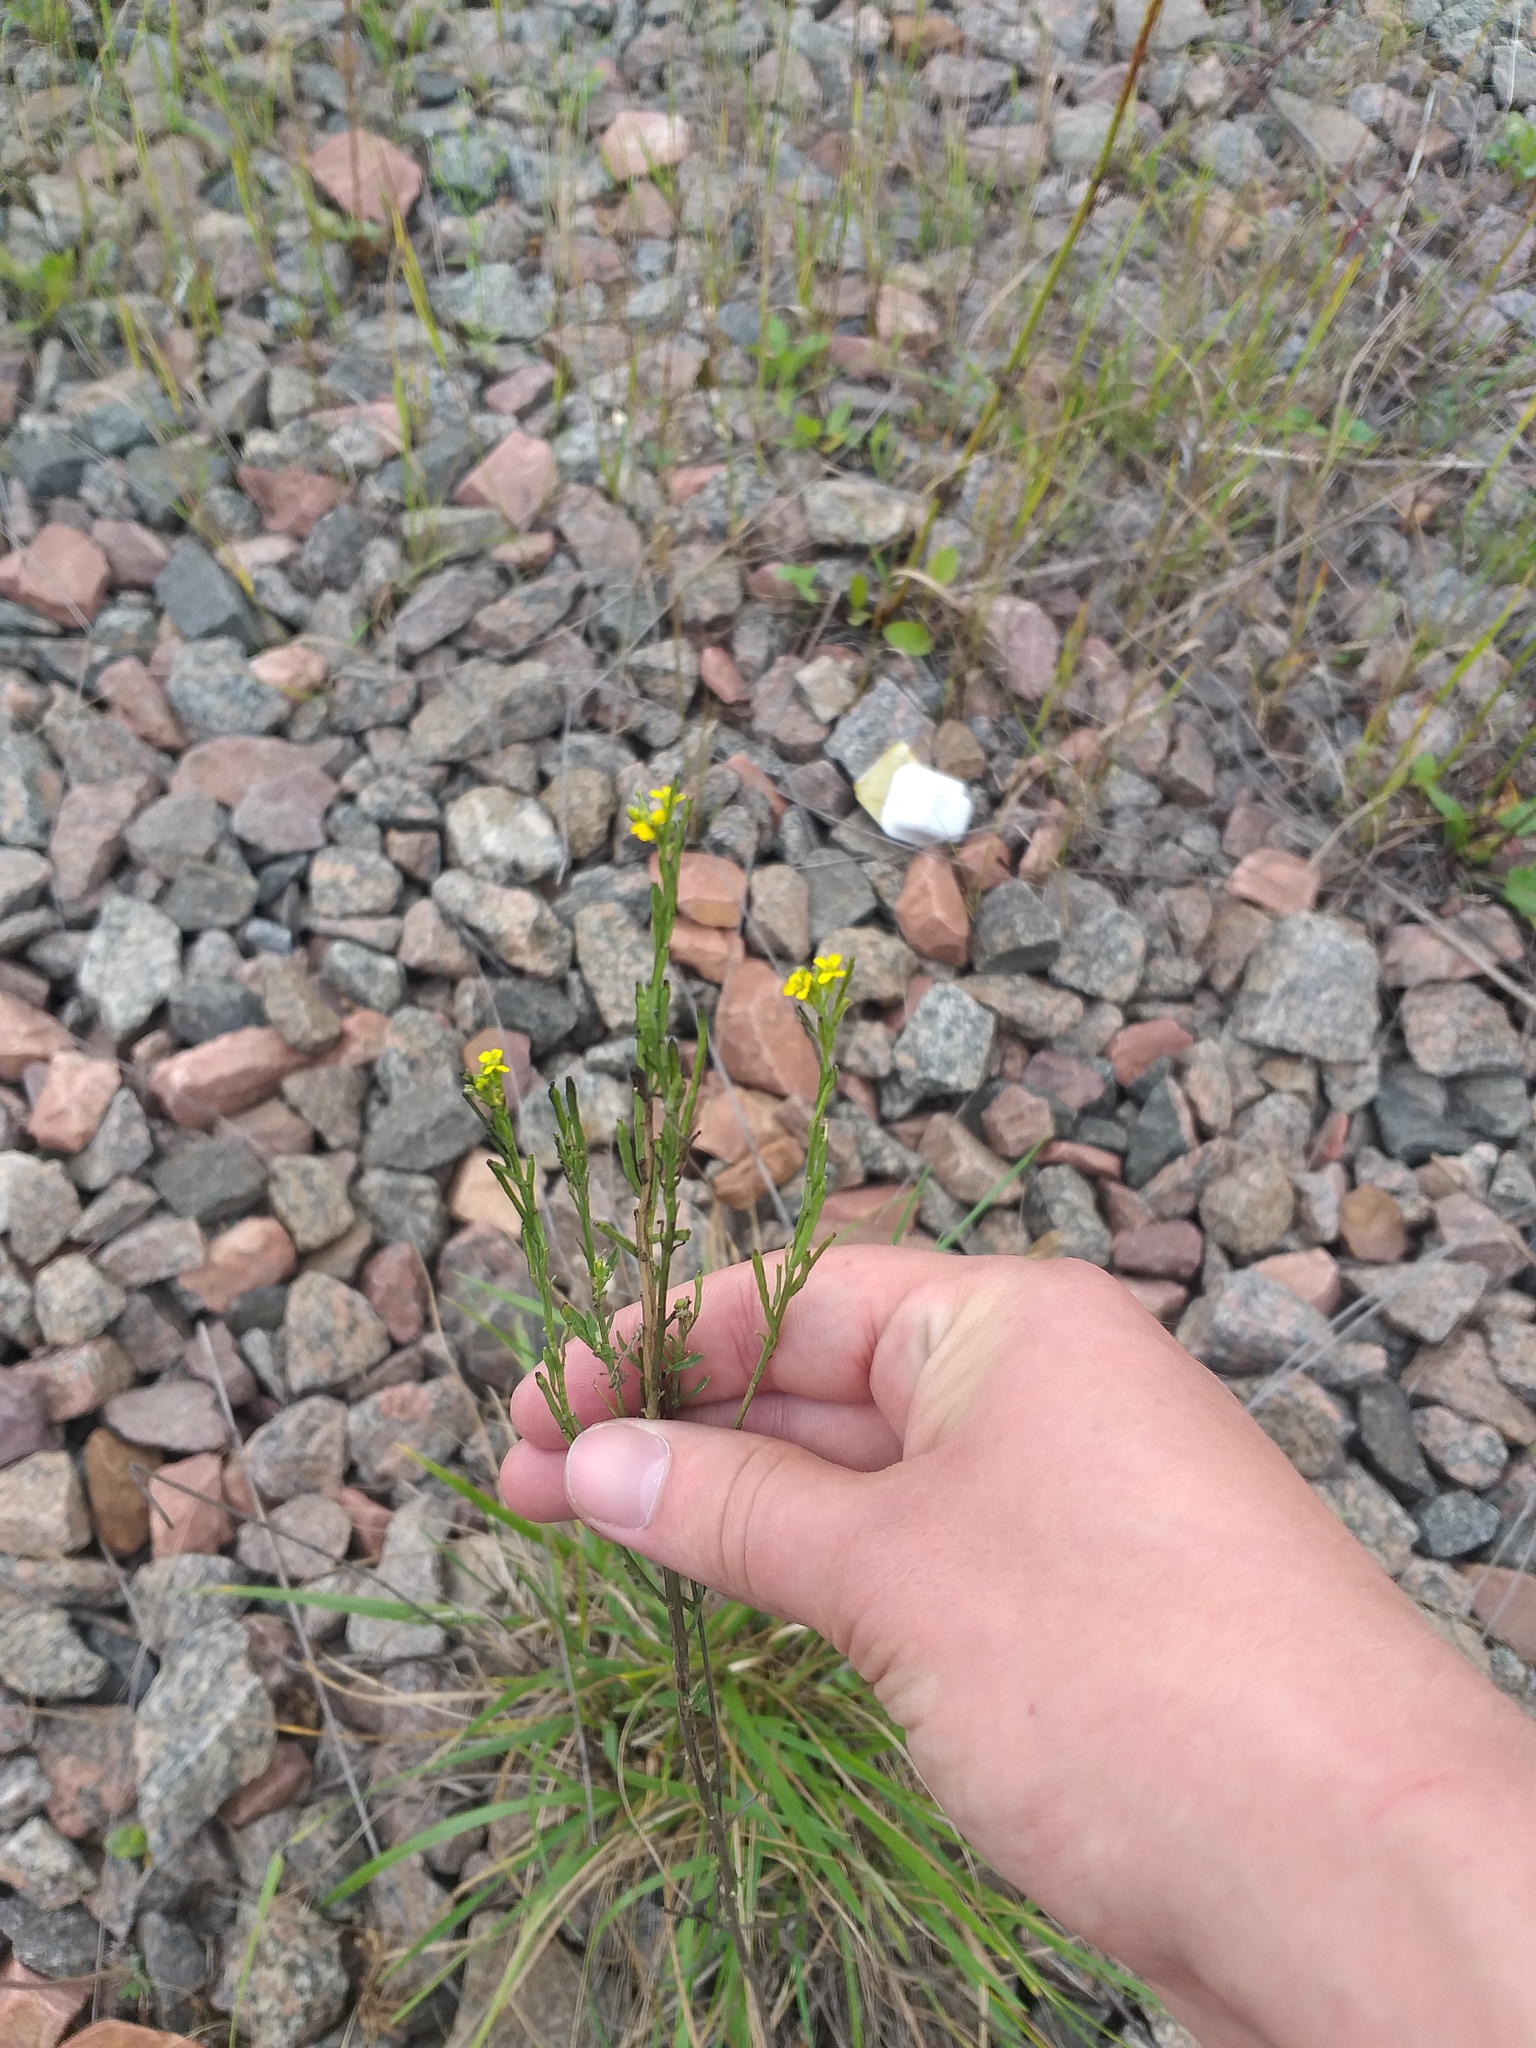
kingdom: Plantae
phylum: Tracheophyta
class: Magnoliopsida
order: Brassicales
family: Brassicaceae
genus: Erysimum
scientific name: Erysimum hieraciifolium
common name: European wallflower
